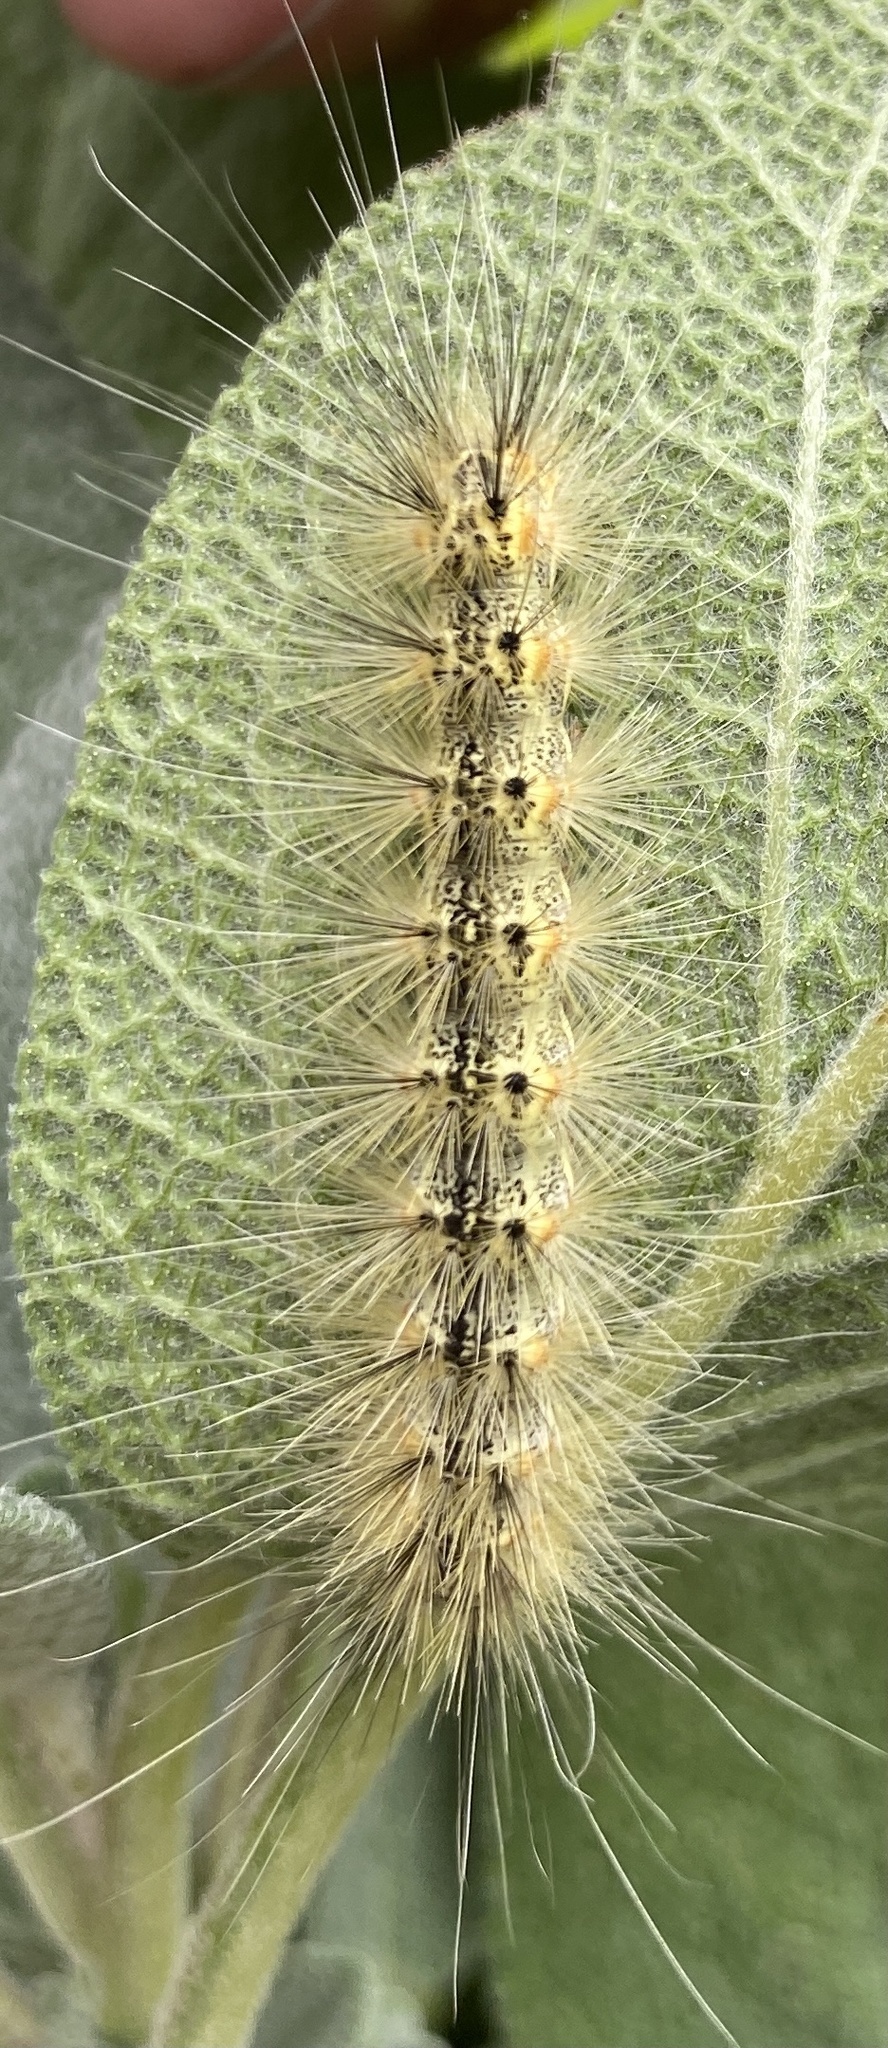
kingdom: Animalia
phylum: Arthropoda
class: Insecta
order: Lepidoptera
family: Erebidae
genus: Hyphantria
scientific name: Hyphantria cunea
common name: American white moth
